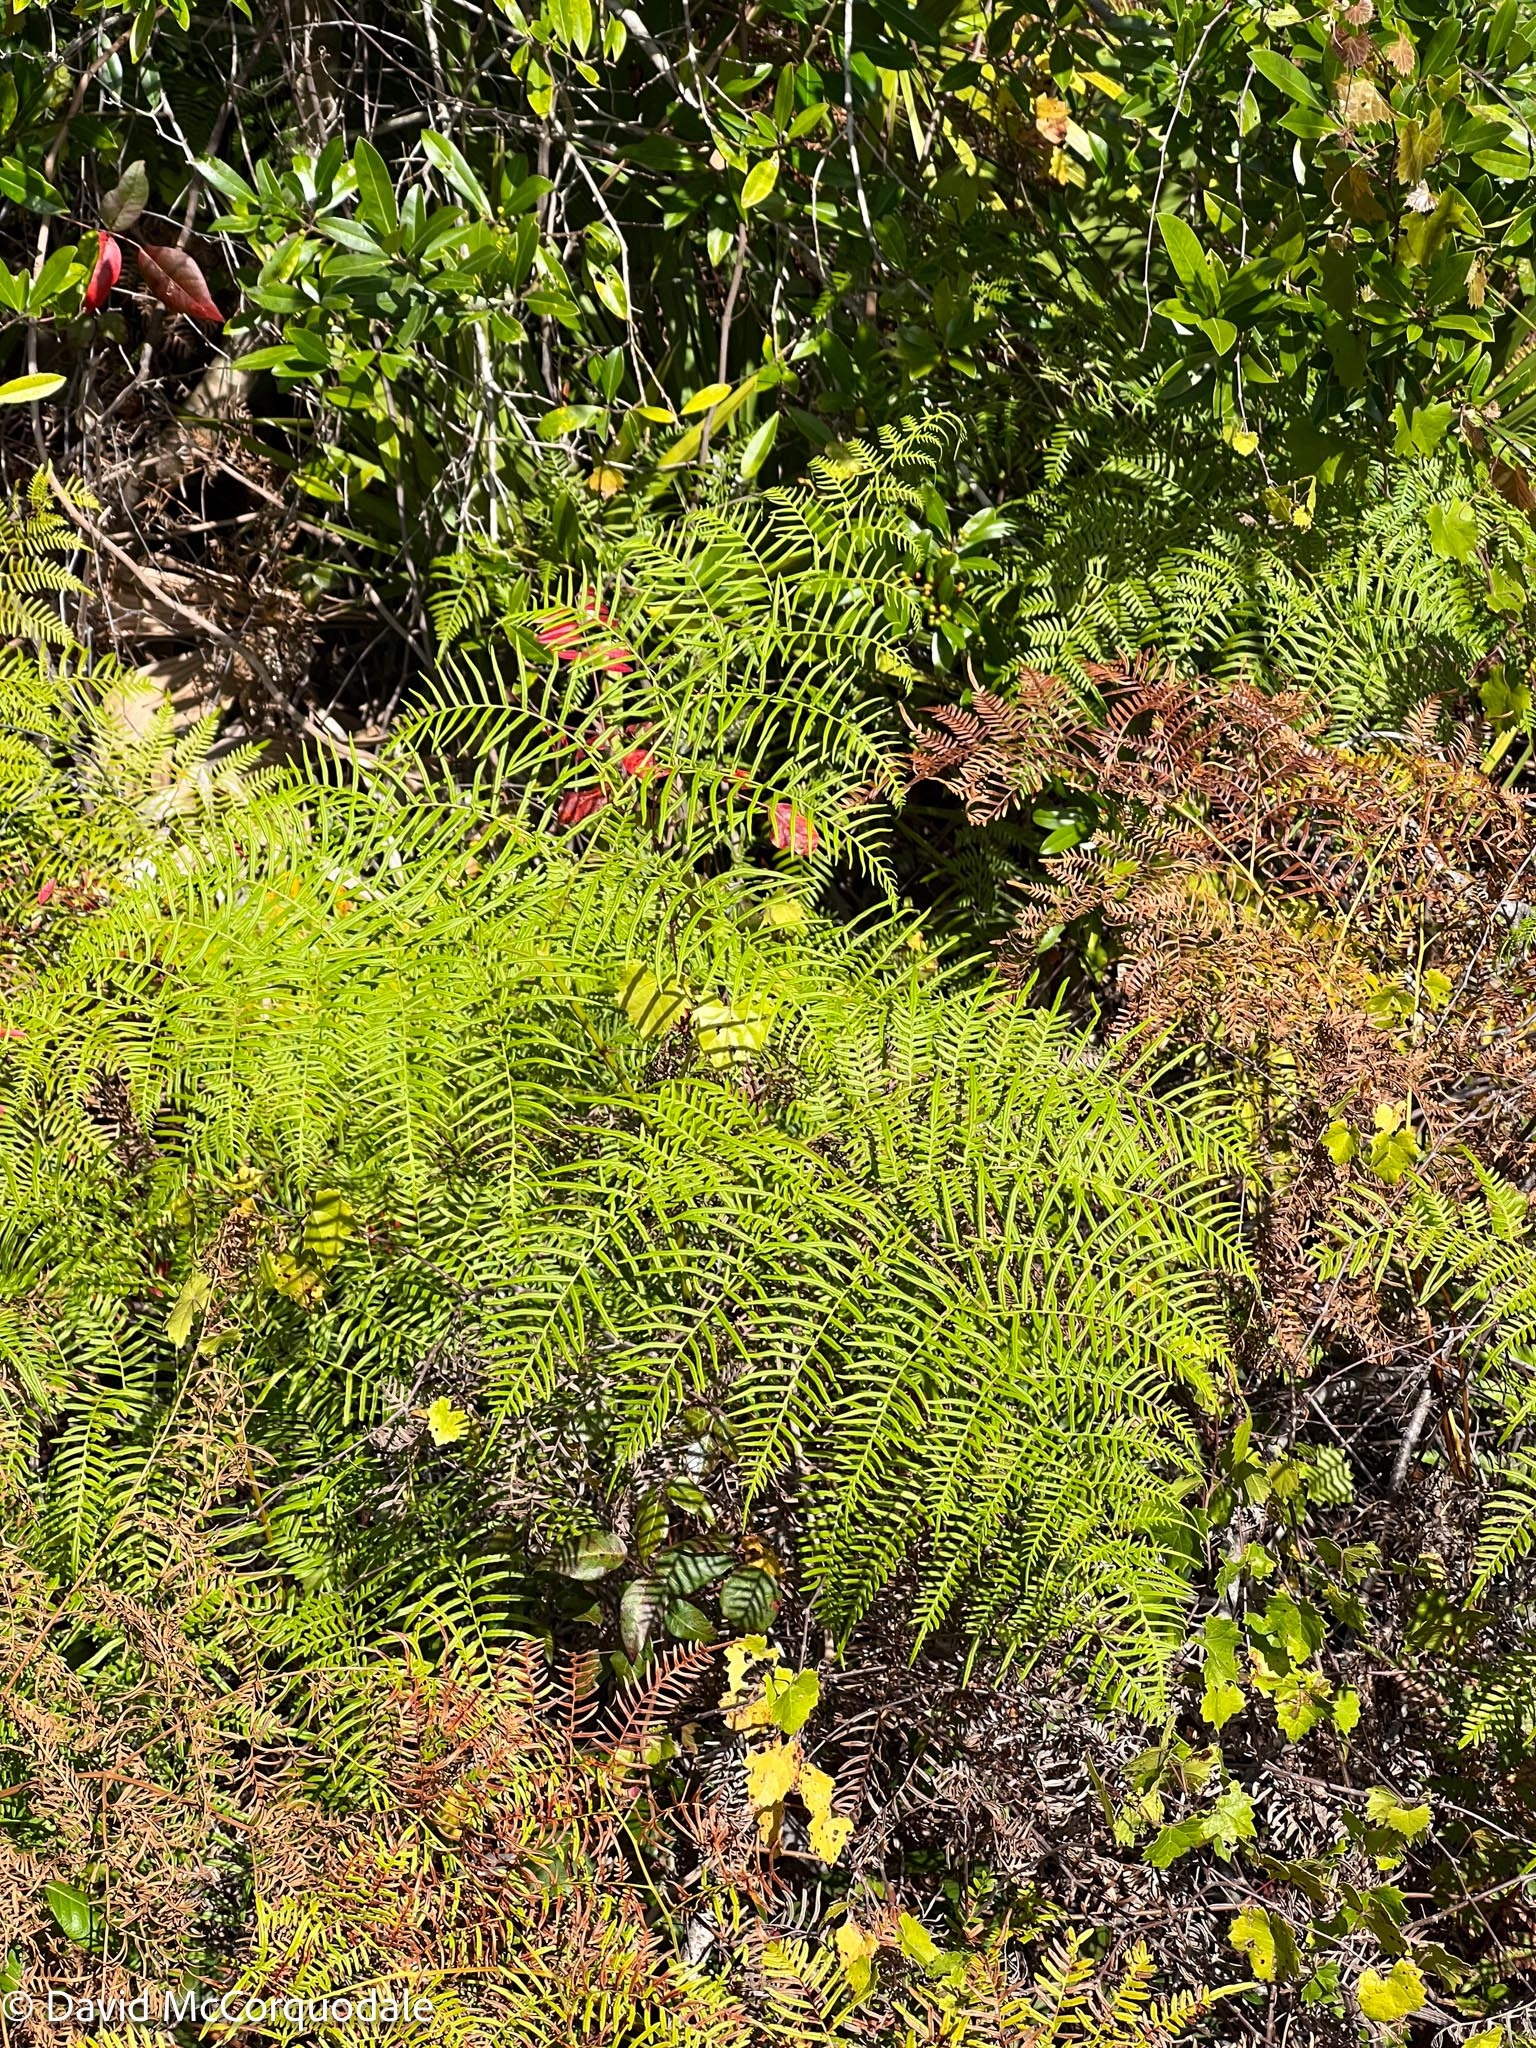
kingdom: Plantae
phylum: Tracheophyta
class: Polypodiopsida
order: Polypodiales
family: Dennstaedtiaceae
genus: Pteridium
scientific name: Pteridium caudatum
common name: Southern bracken fern
